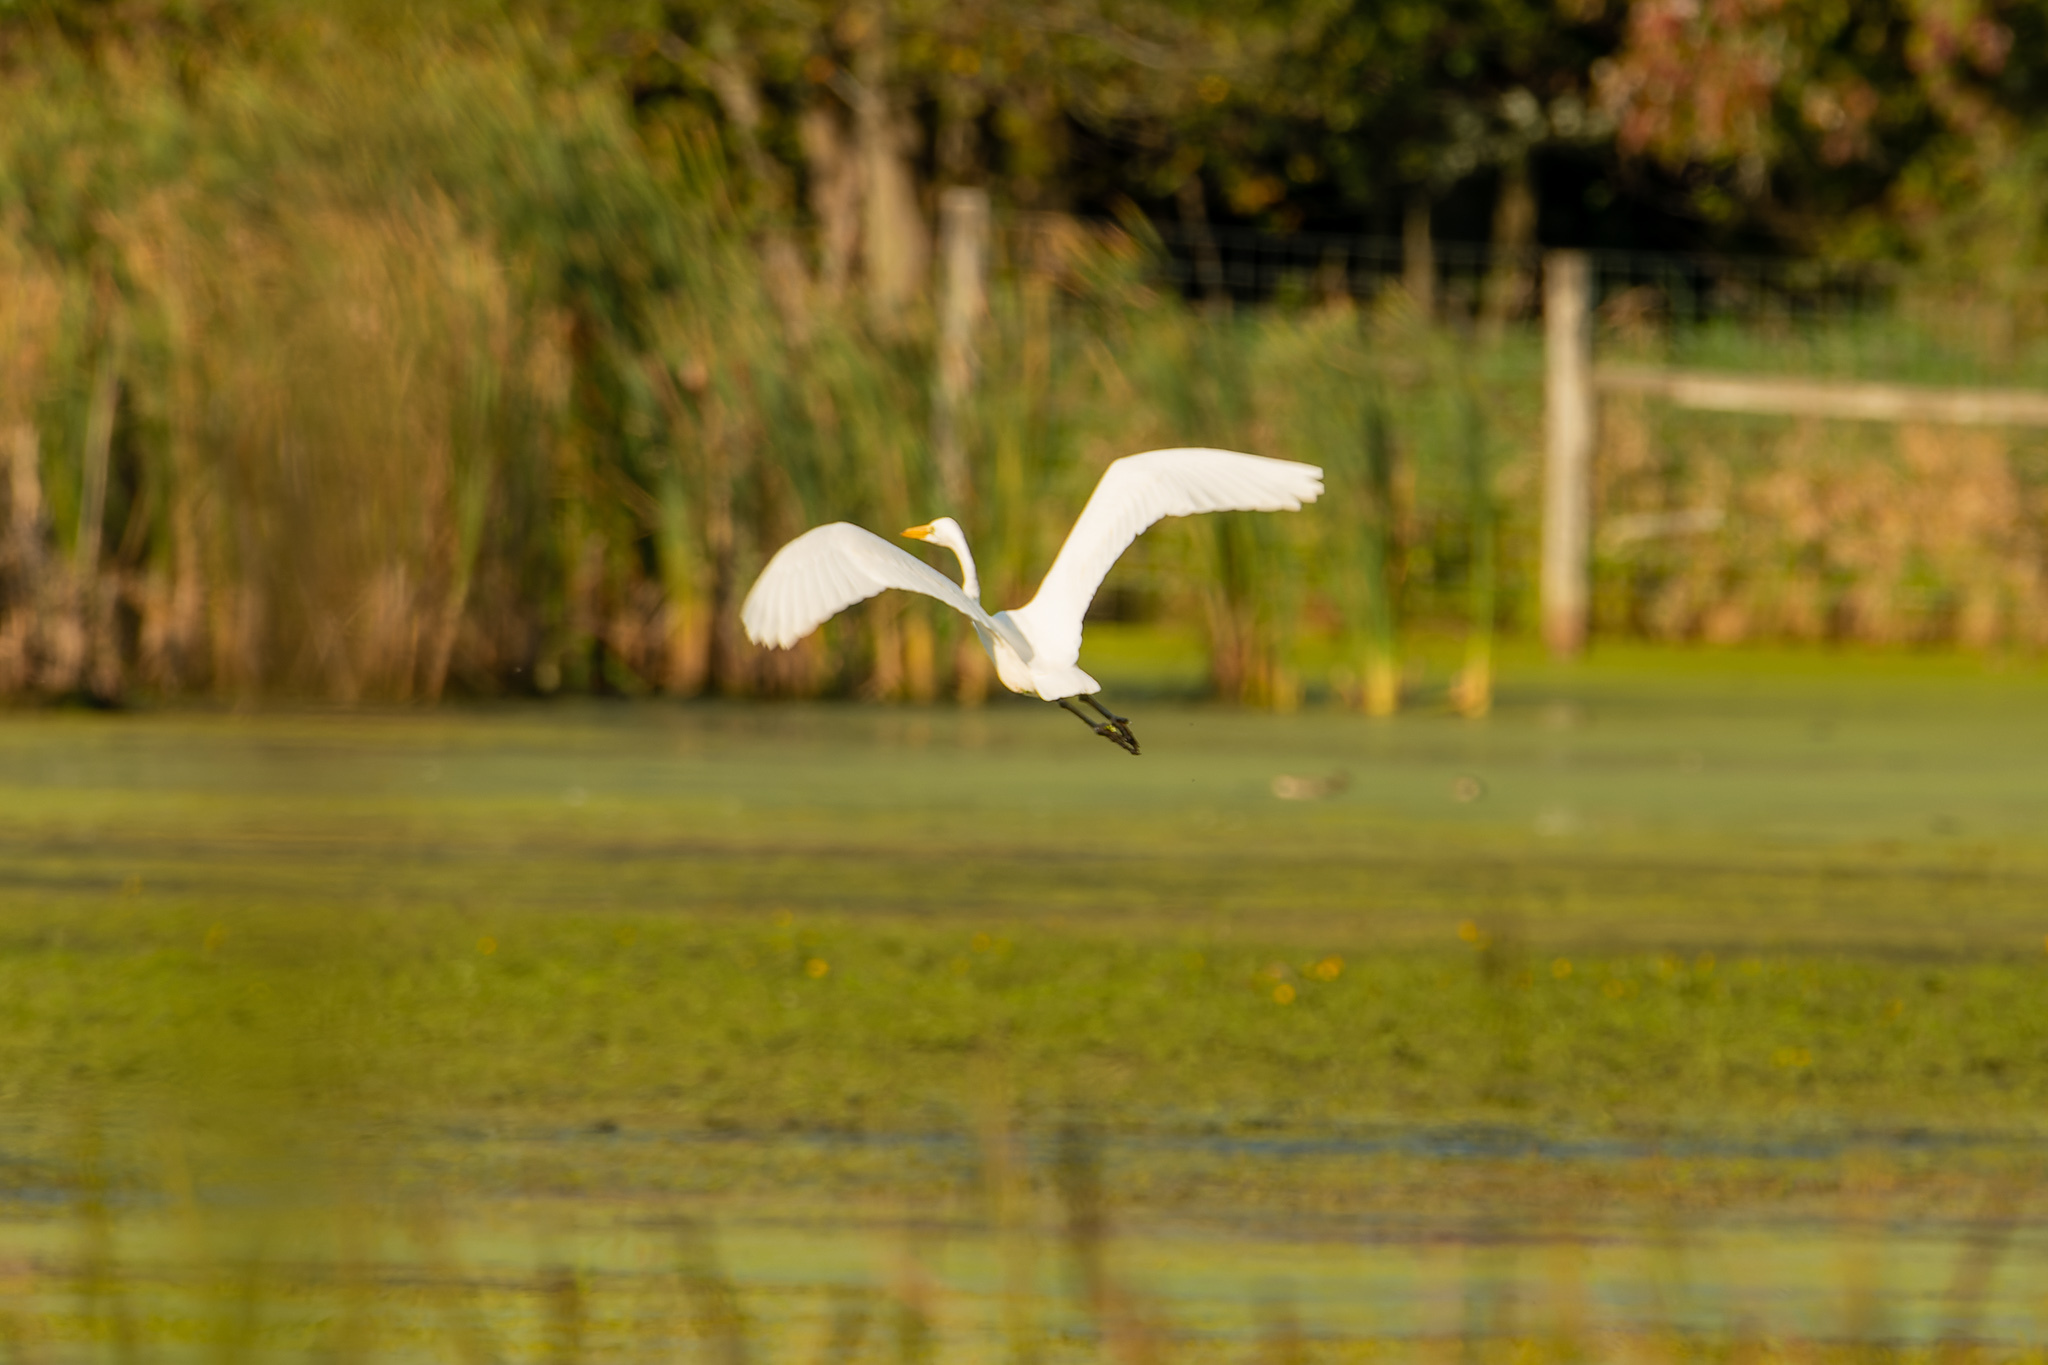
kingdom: Animalia
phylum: Chordata
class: Aves
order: Pelecaniformes
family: Ardeidae
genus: Ardea
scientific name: Ardea alba
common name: Great egret
